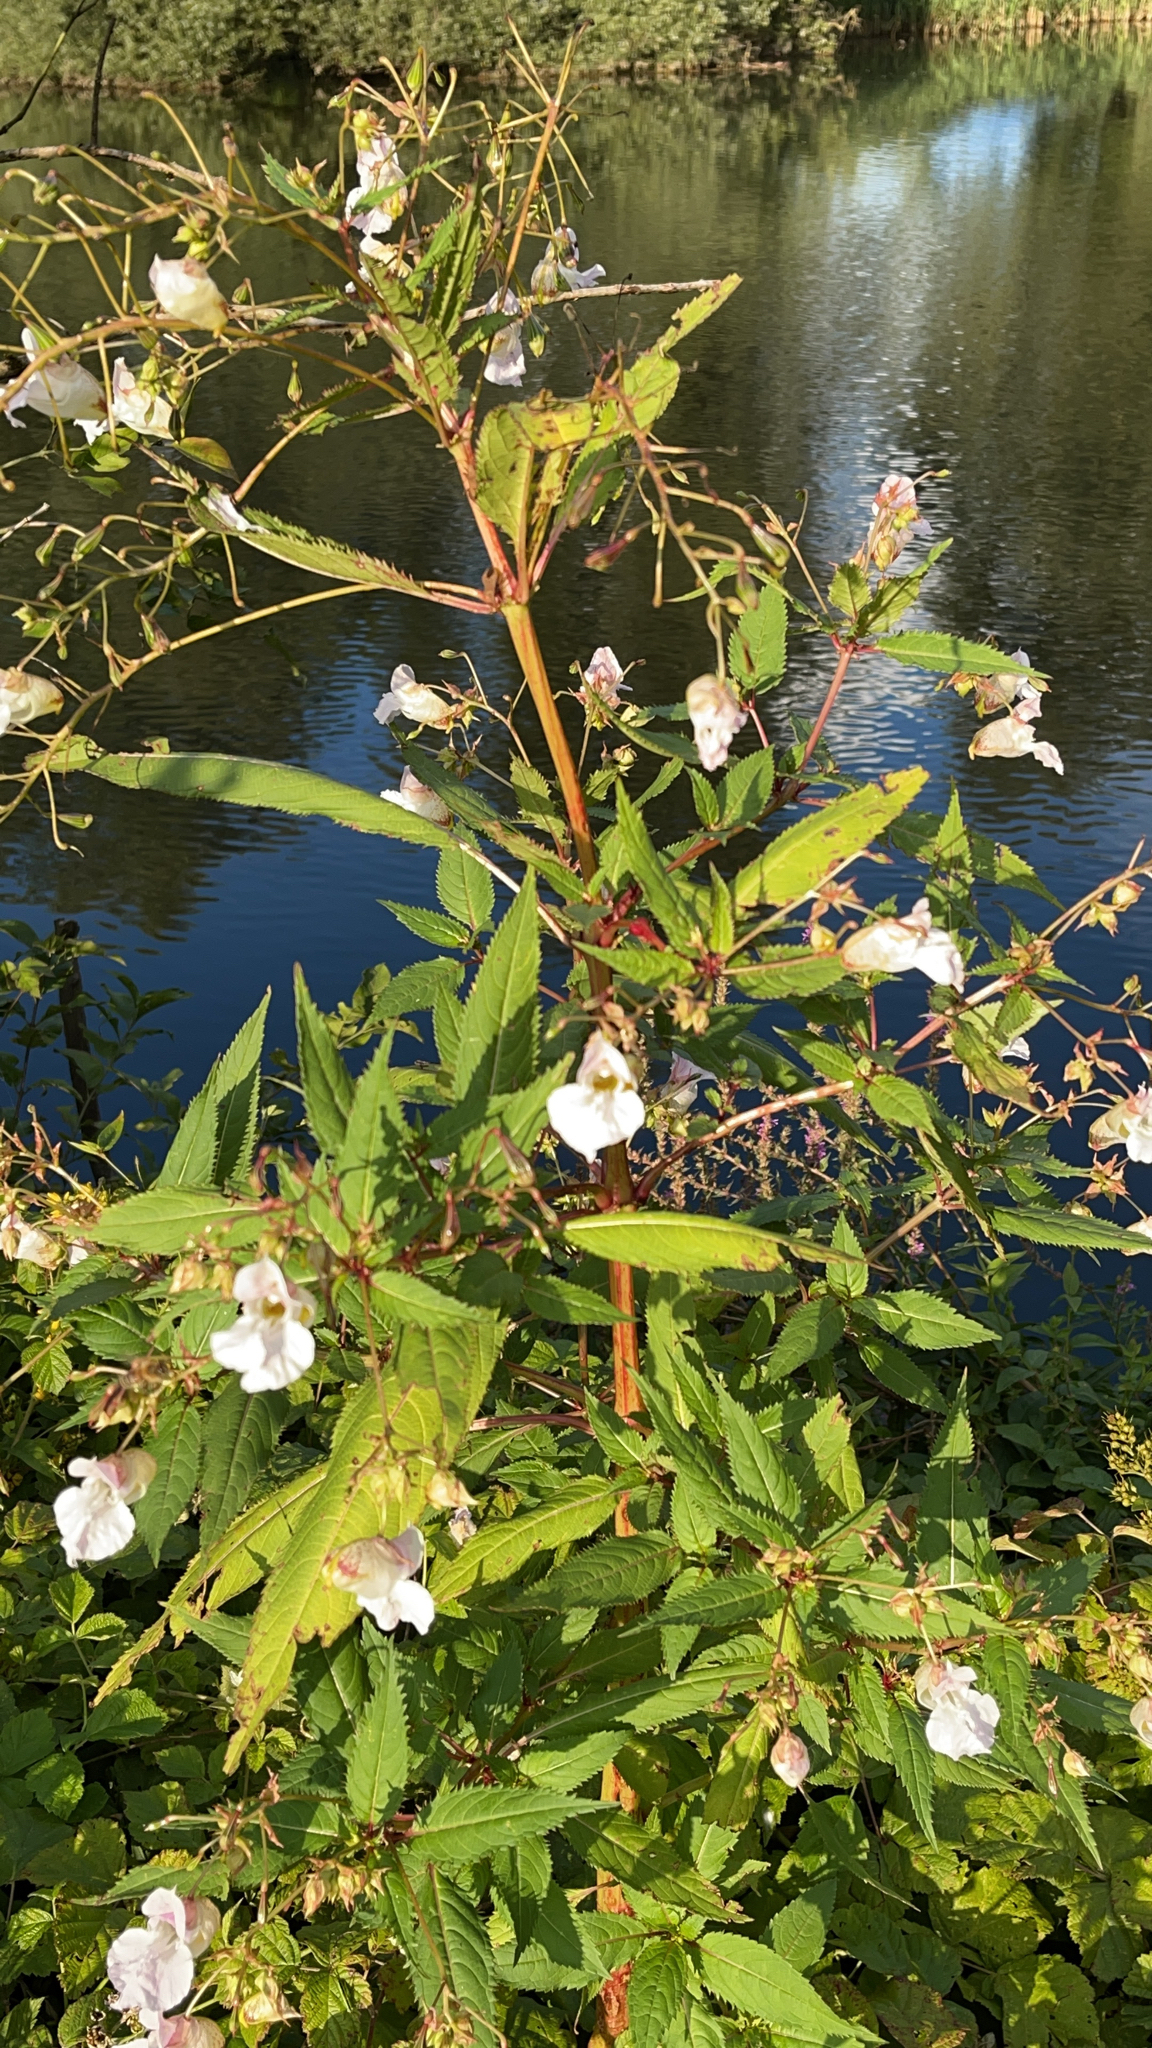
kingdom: Plantae
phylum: Tracheophyta
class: Magnoliopsida
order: Ericales
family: Balsaminaceae
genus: Impatiens
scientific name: Impatiens glandulifera
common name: Himalayan balsam
